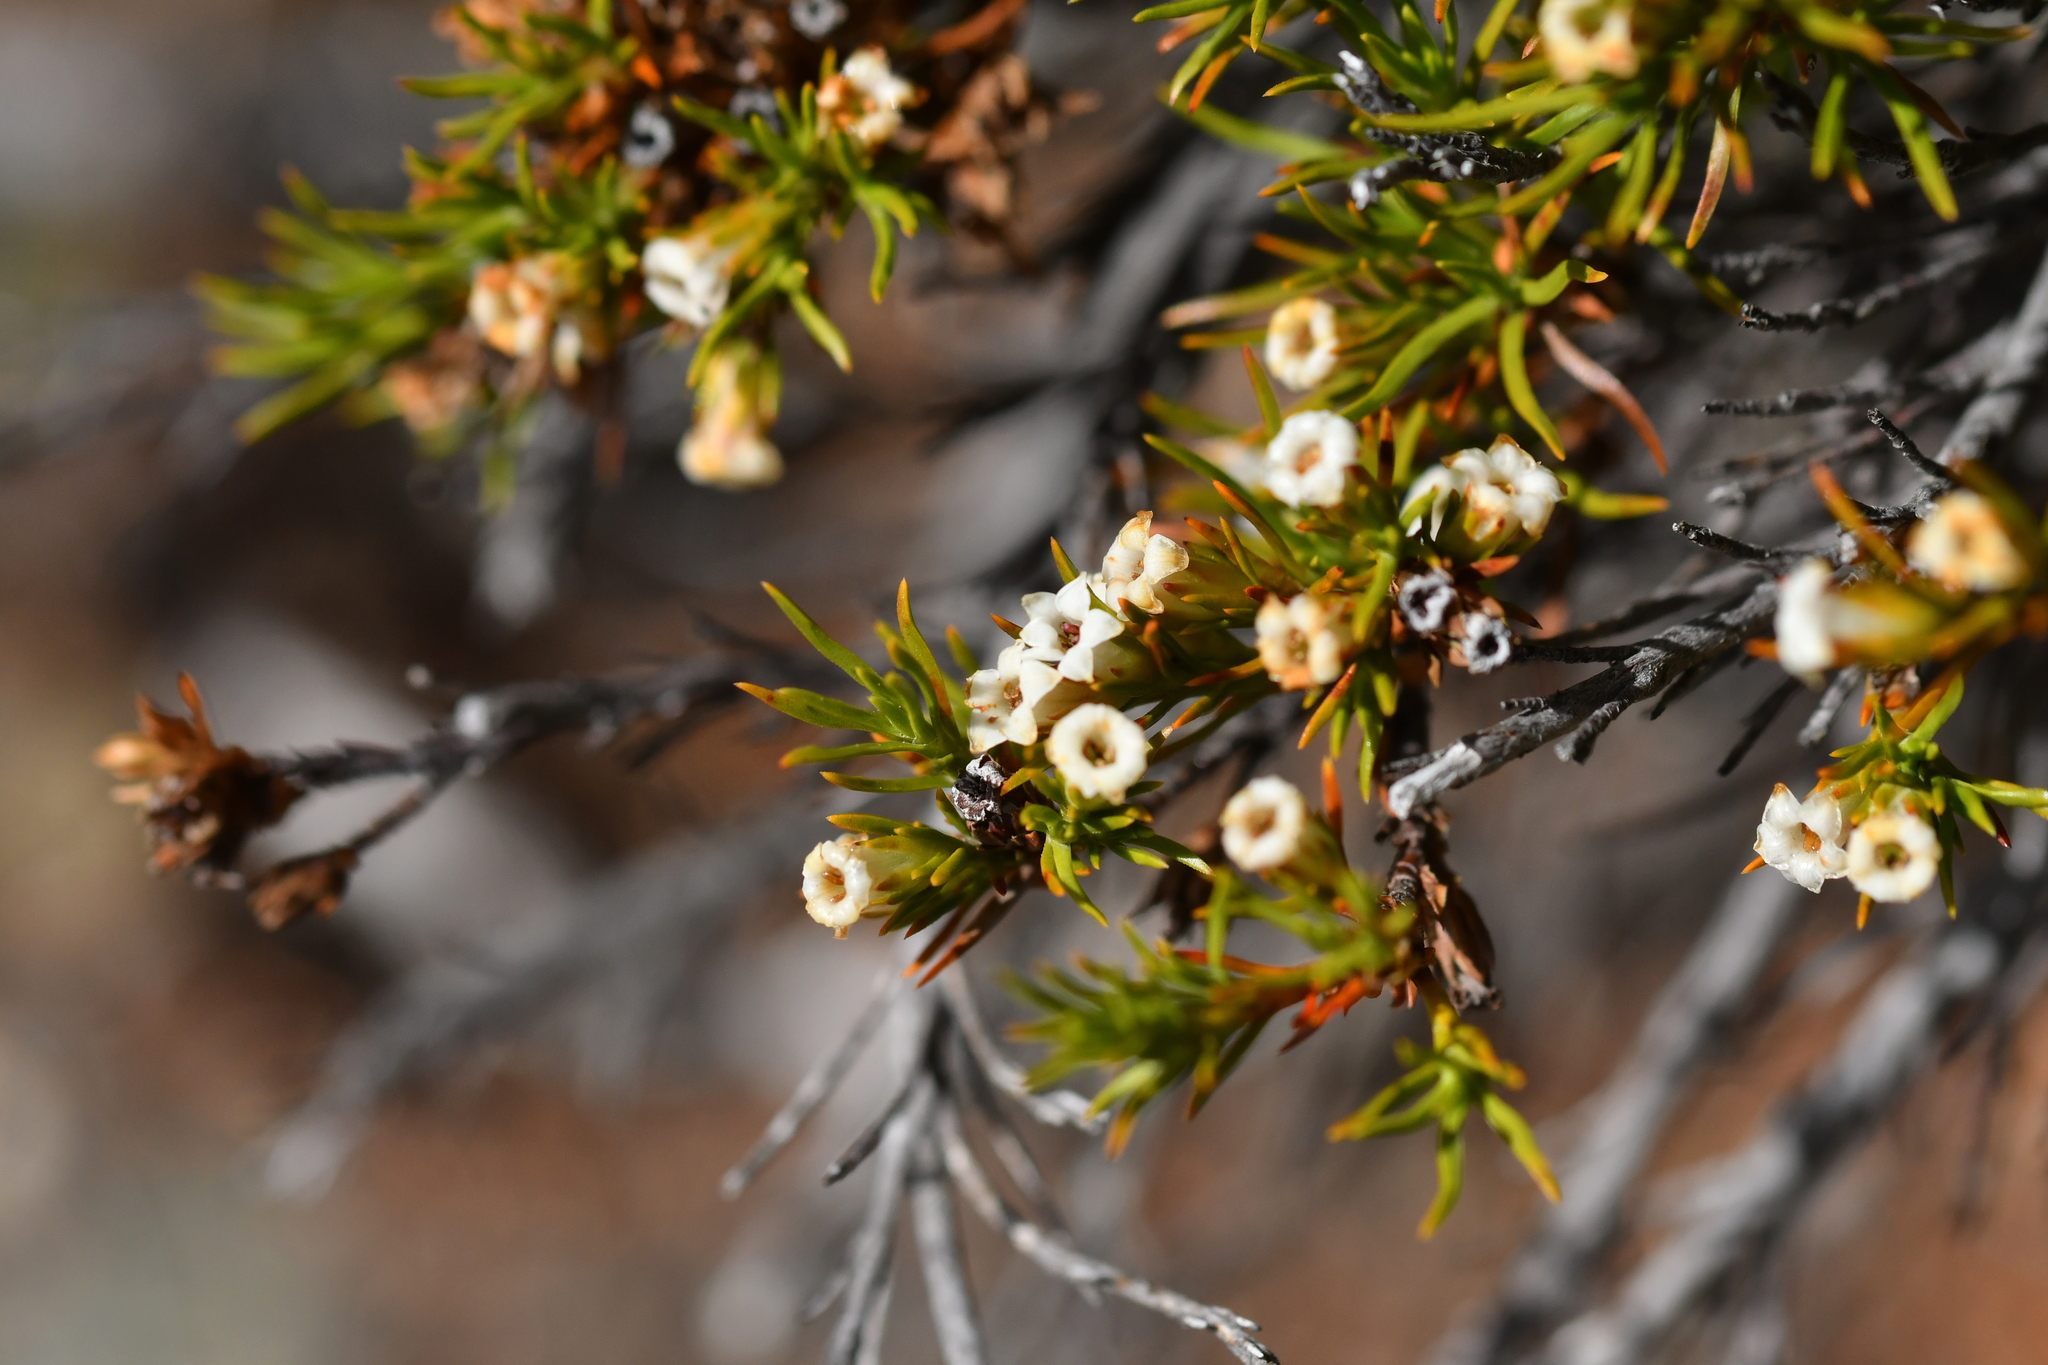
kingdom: Plantae
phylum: Tracheophyta
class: Magnoliopsida
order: Ericales
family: Ericaceae
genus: Dracophyllum
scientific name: Dracophyllum rosmarinifolium
